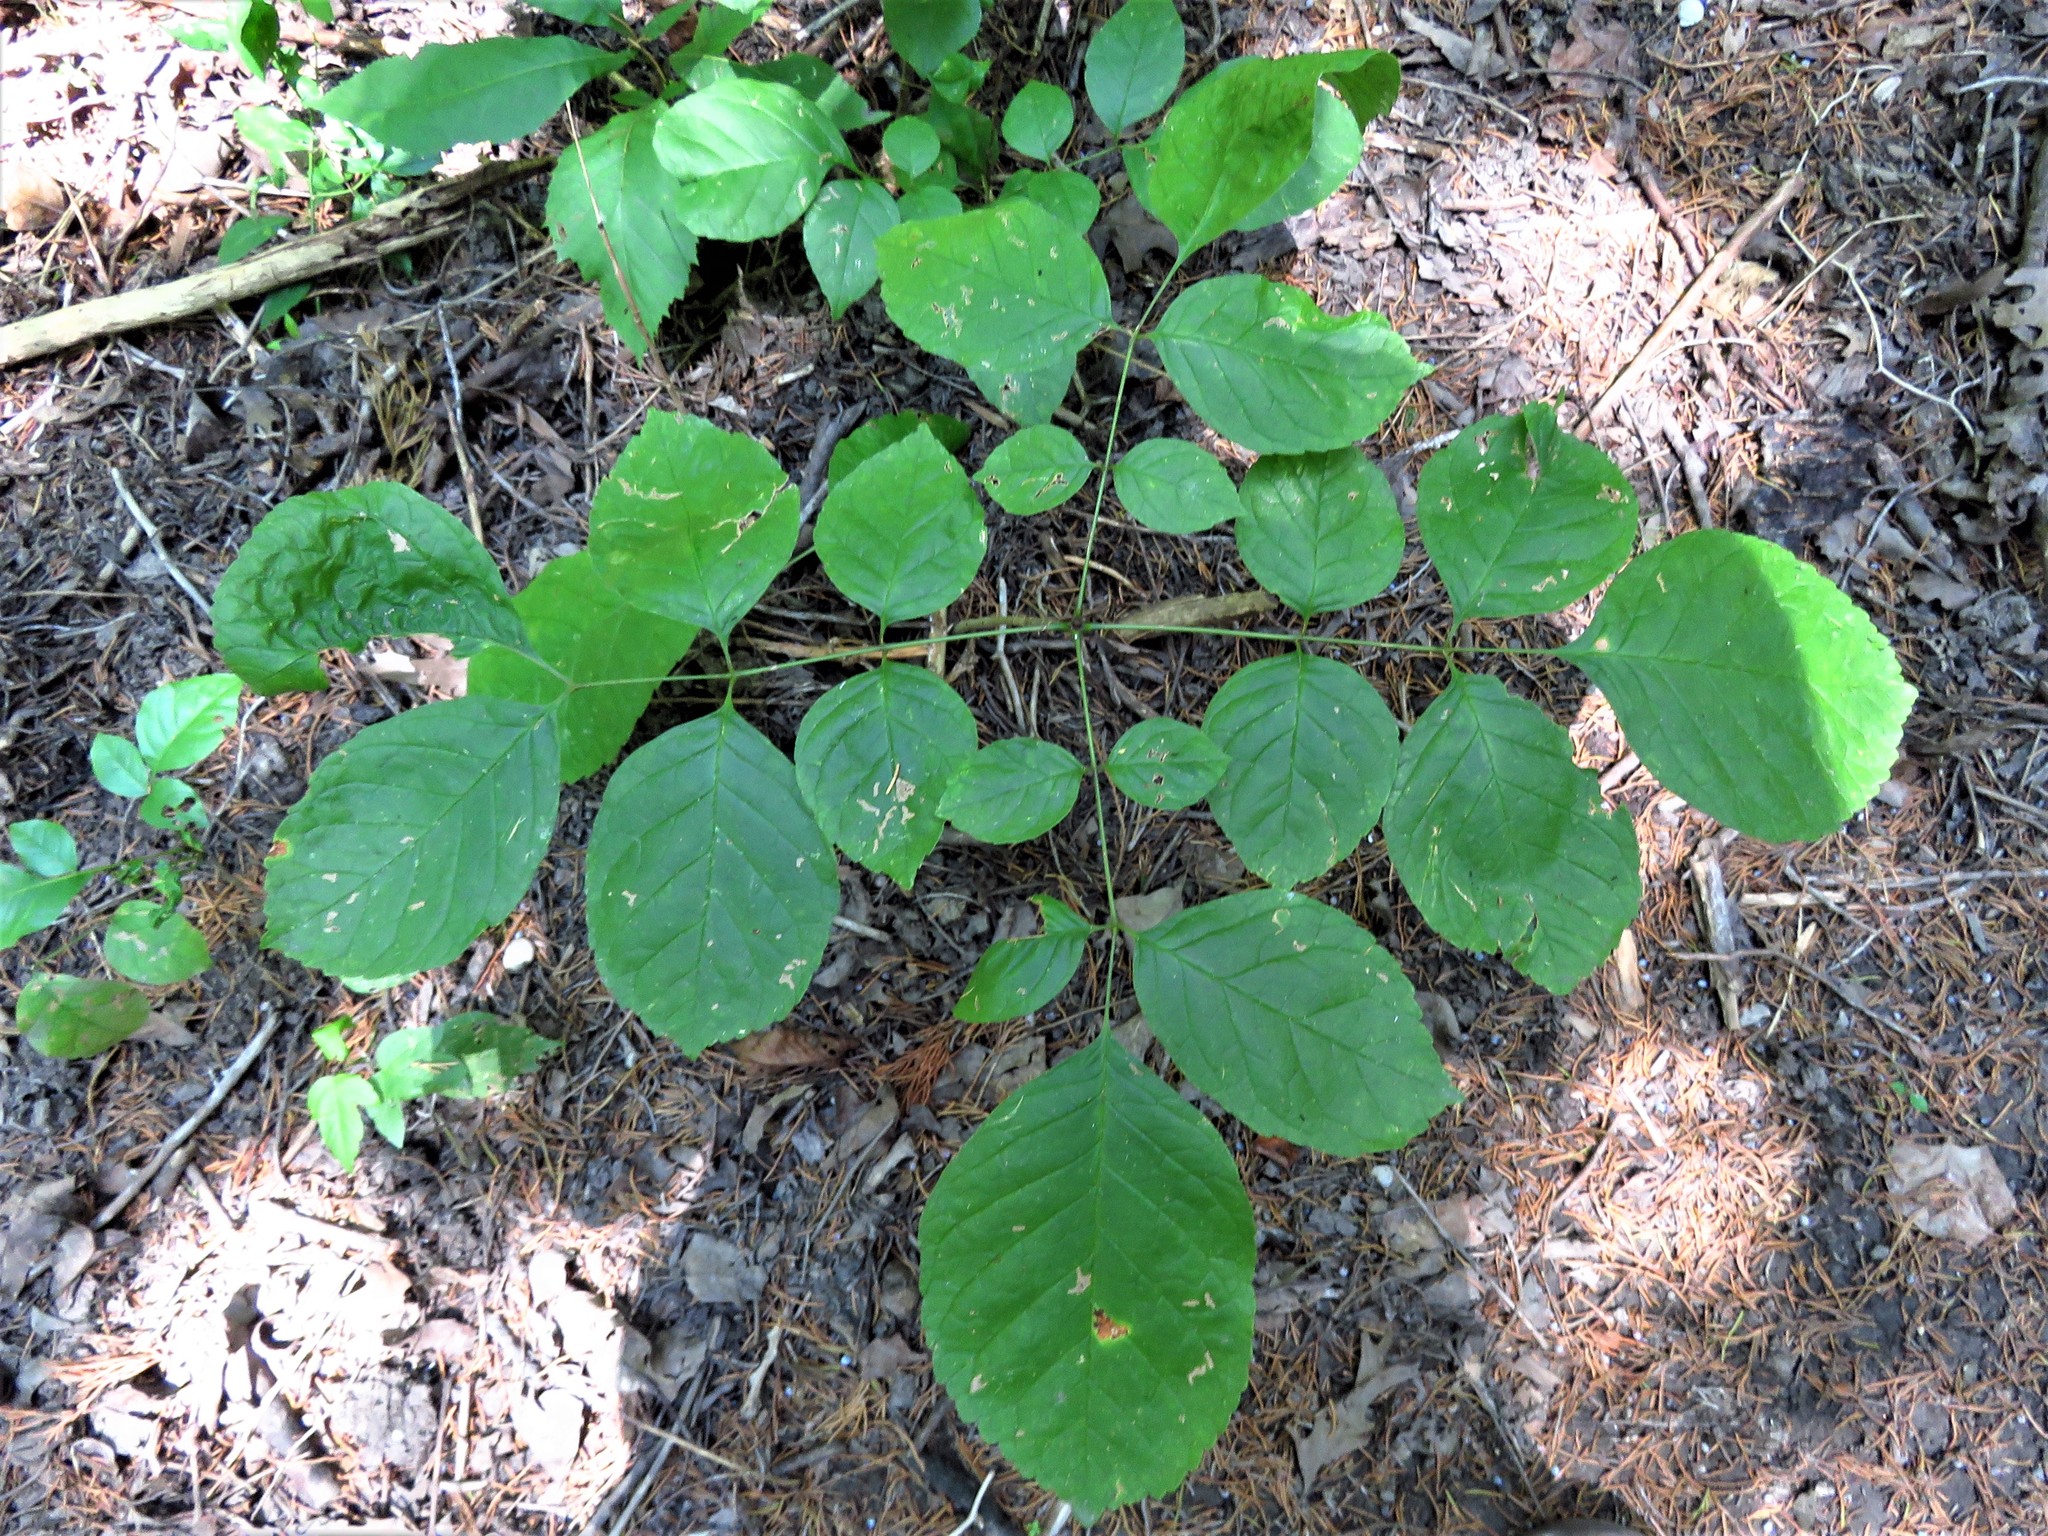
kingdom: Plantae
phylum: Tracheophyta
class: Magnoliopsida
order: Lamiales
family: Oleaceae
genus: Fraxinus
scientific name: Fraxinus albicans
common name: Texas ash
